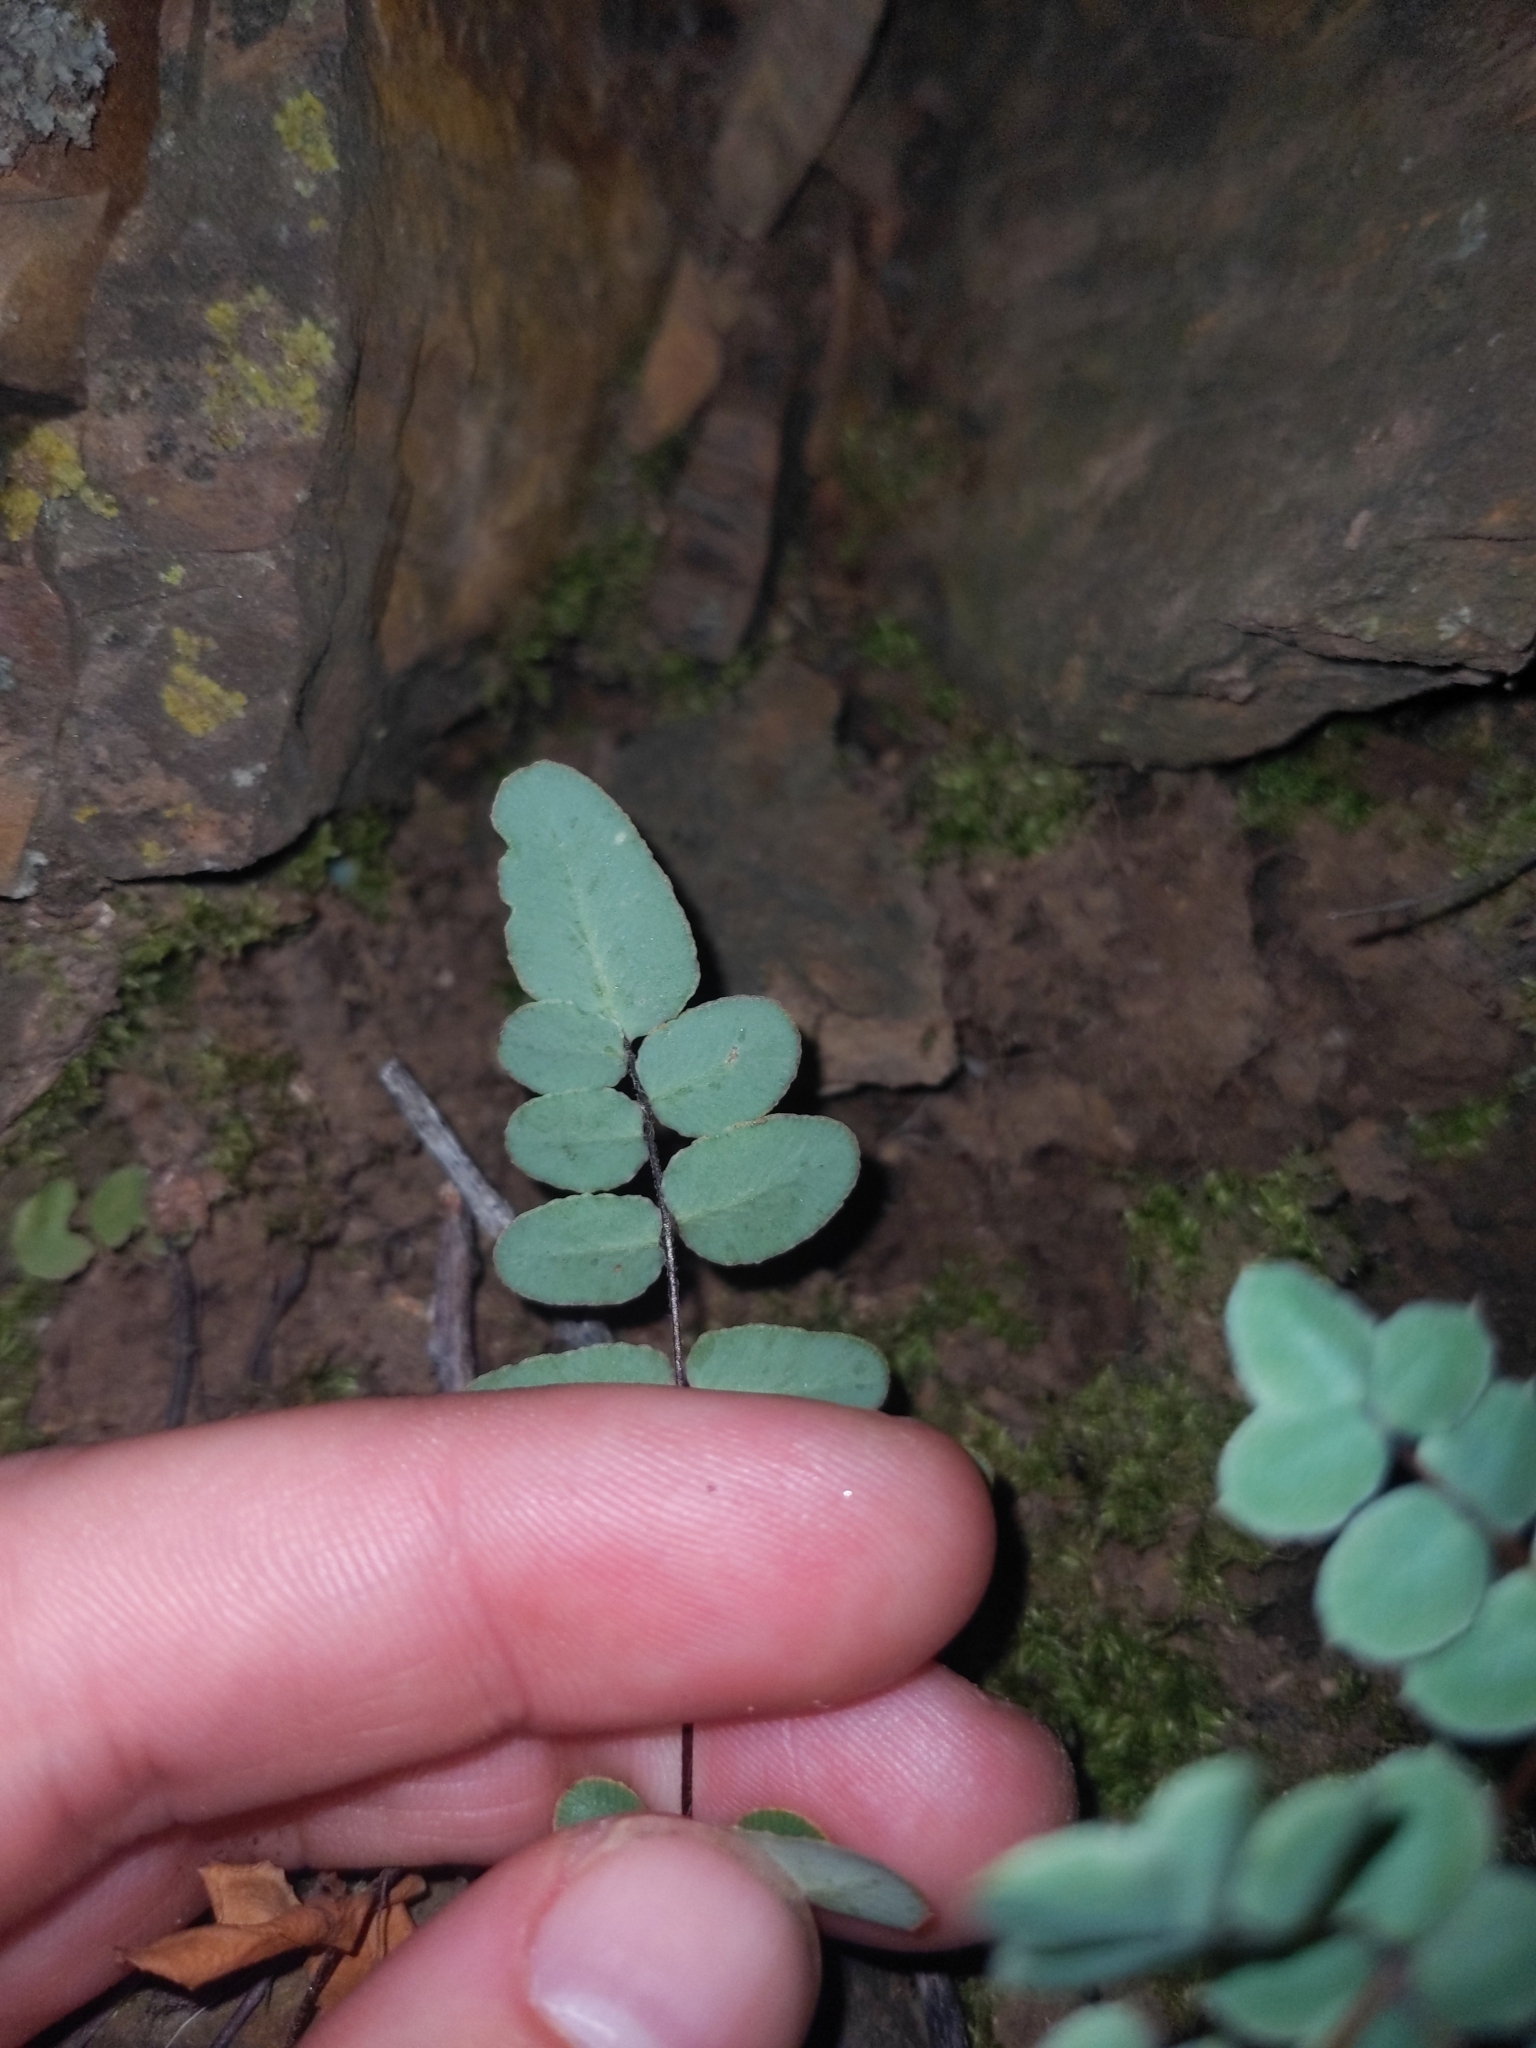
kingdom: Plantae
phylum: Tracheophyta
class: Polypodiopsida
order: Polypodiales
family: Pteridaceae
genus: Pellaea
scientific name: Pellaea atropurpurea
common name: Hairy cliffbrake
